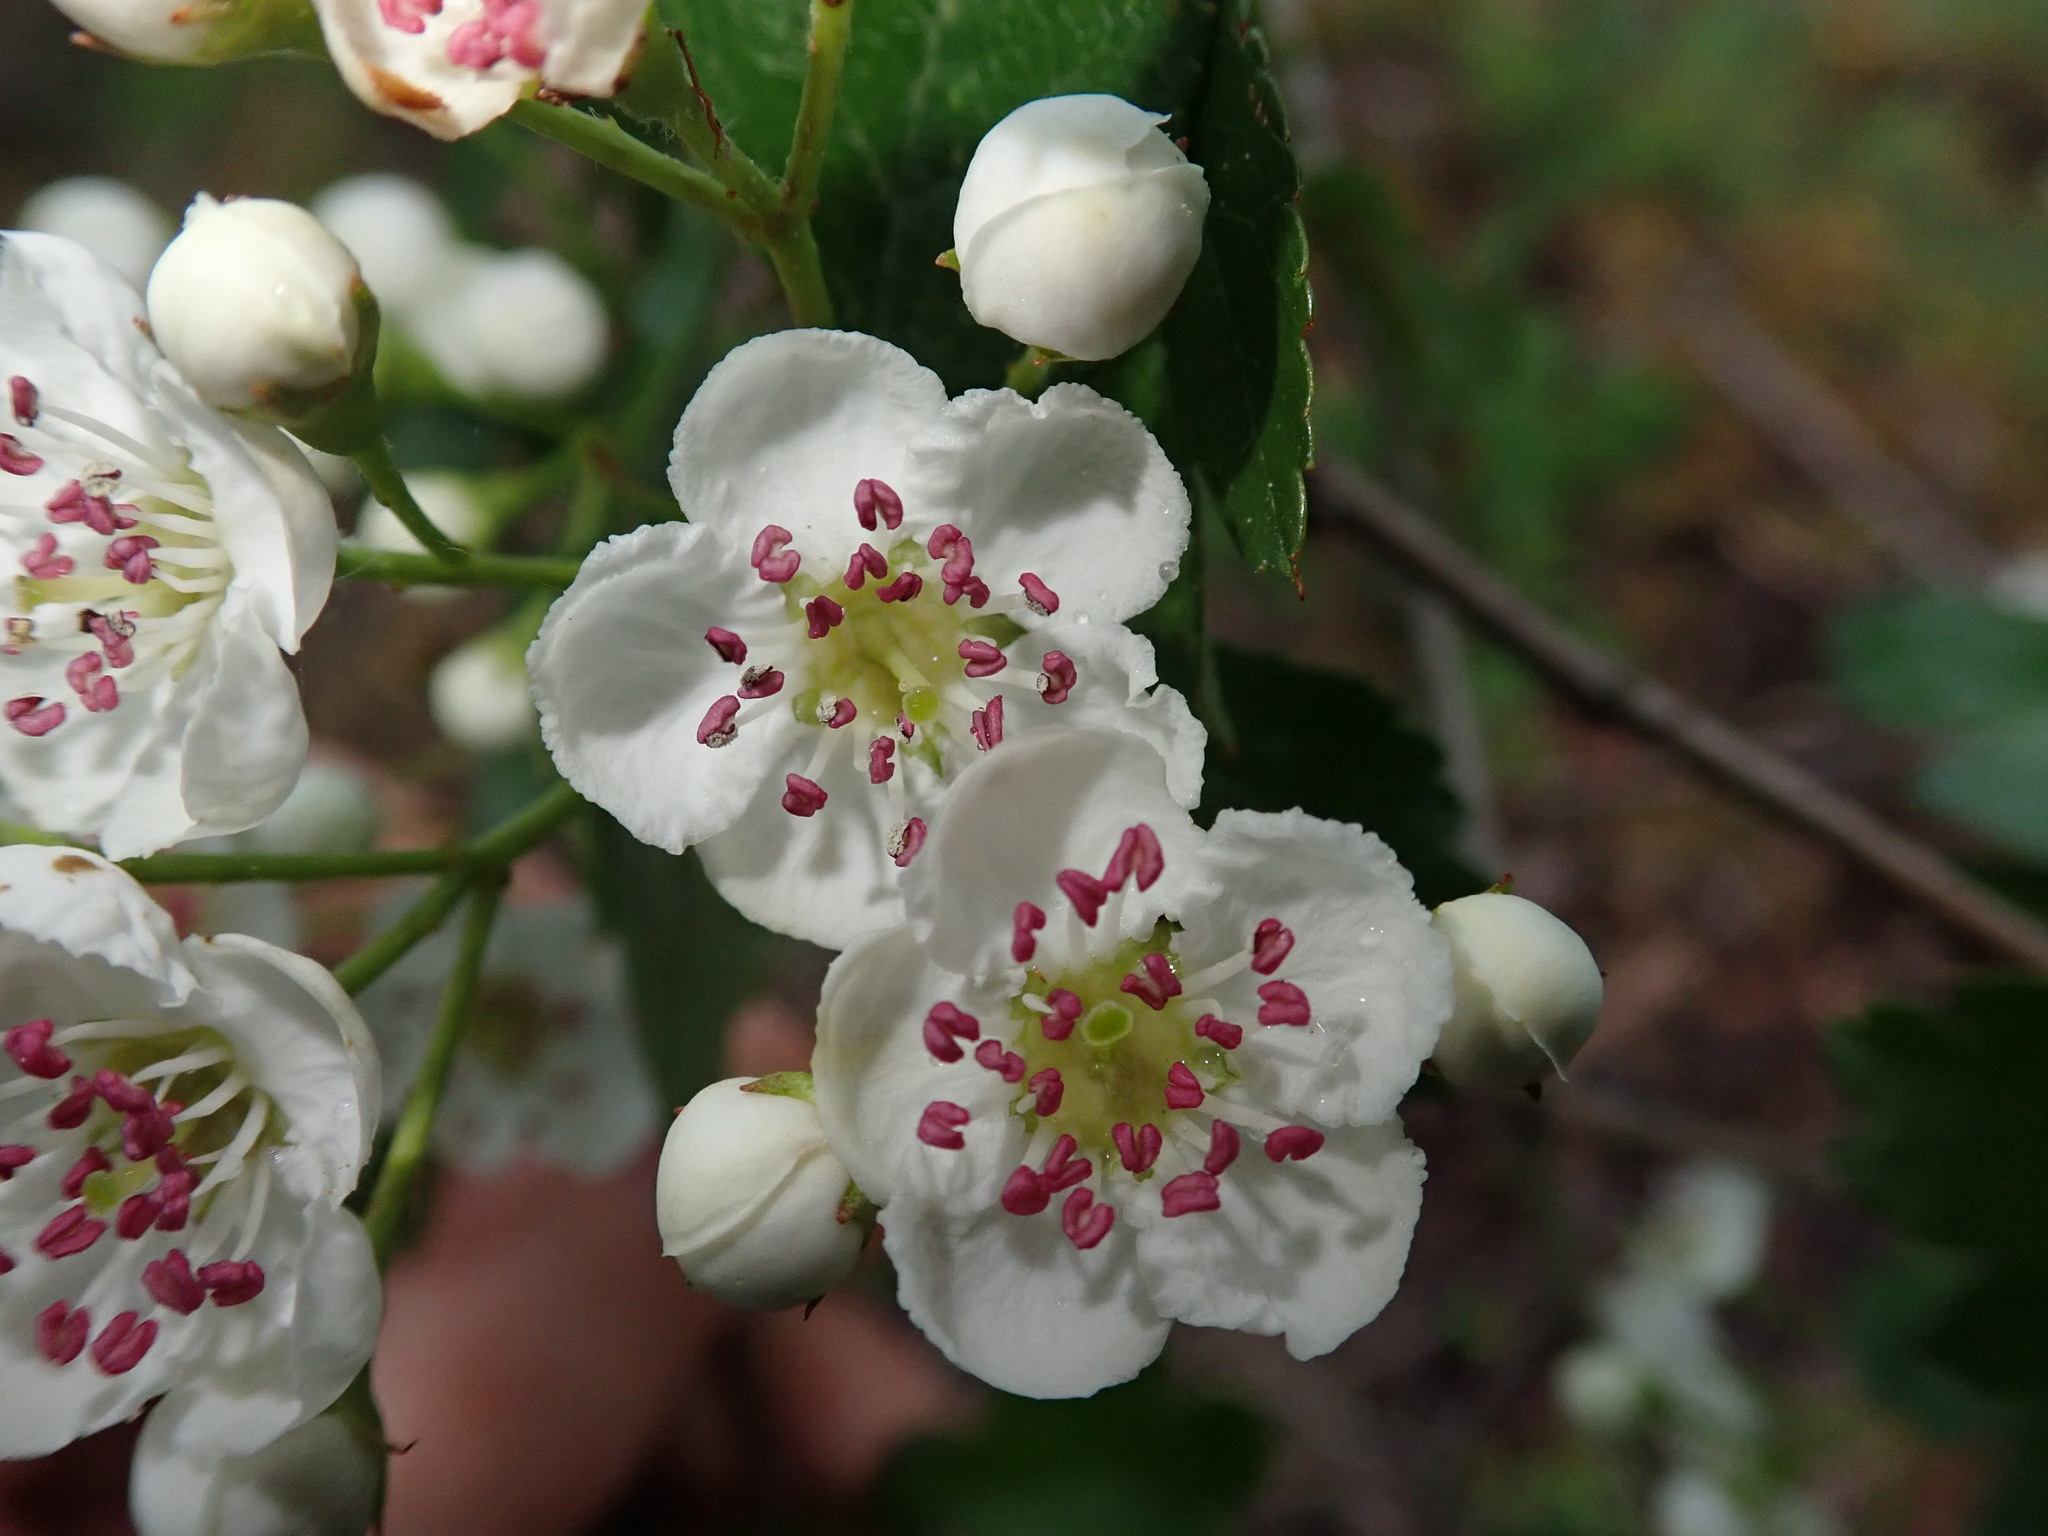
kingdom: Plantae
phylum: Tracheophyta
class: Magnoliopsida
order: Rosales
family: Rosaceae
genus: Crataegus
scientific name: Crataegus monogyna
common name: Hawthorn
